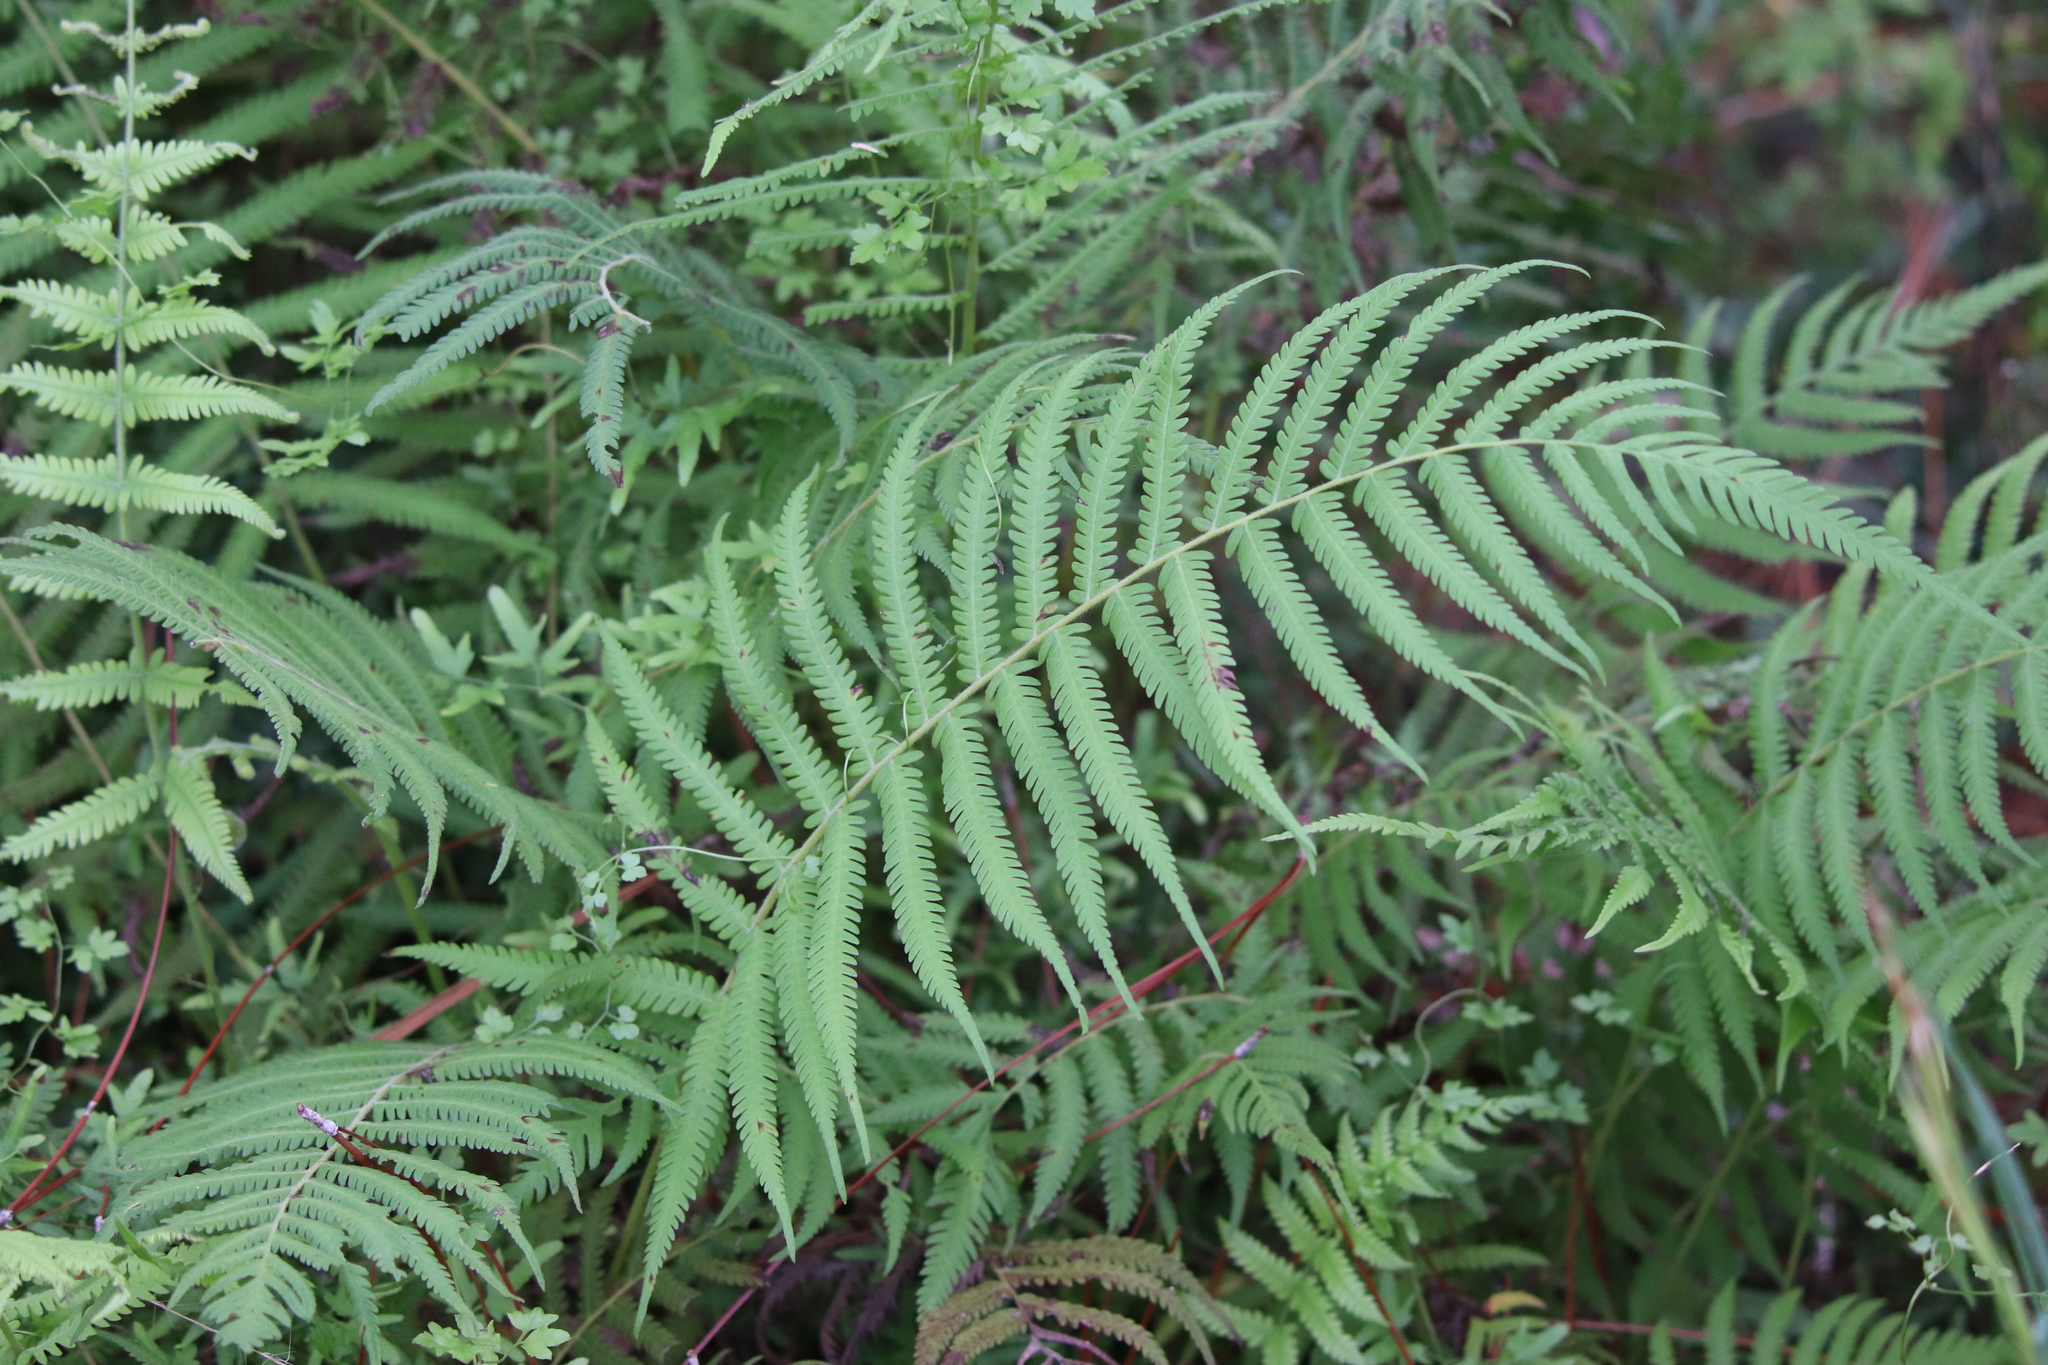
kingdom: Plantae
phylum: Tracheophyta
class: Polypodiopsida
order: Polypodiales
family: Thelypteridaceae
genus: Pelazoneuron
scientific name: Pelazoneuron kunthii
